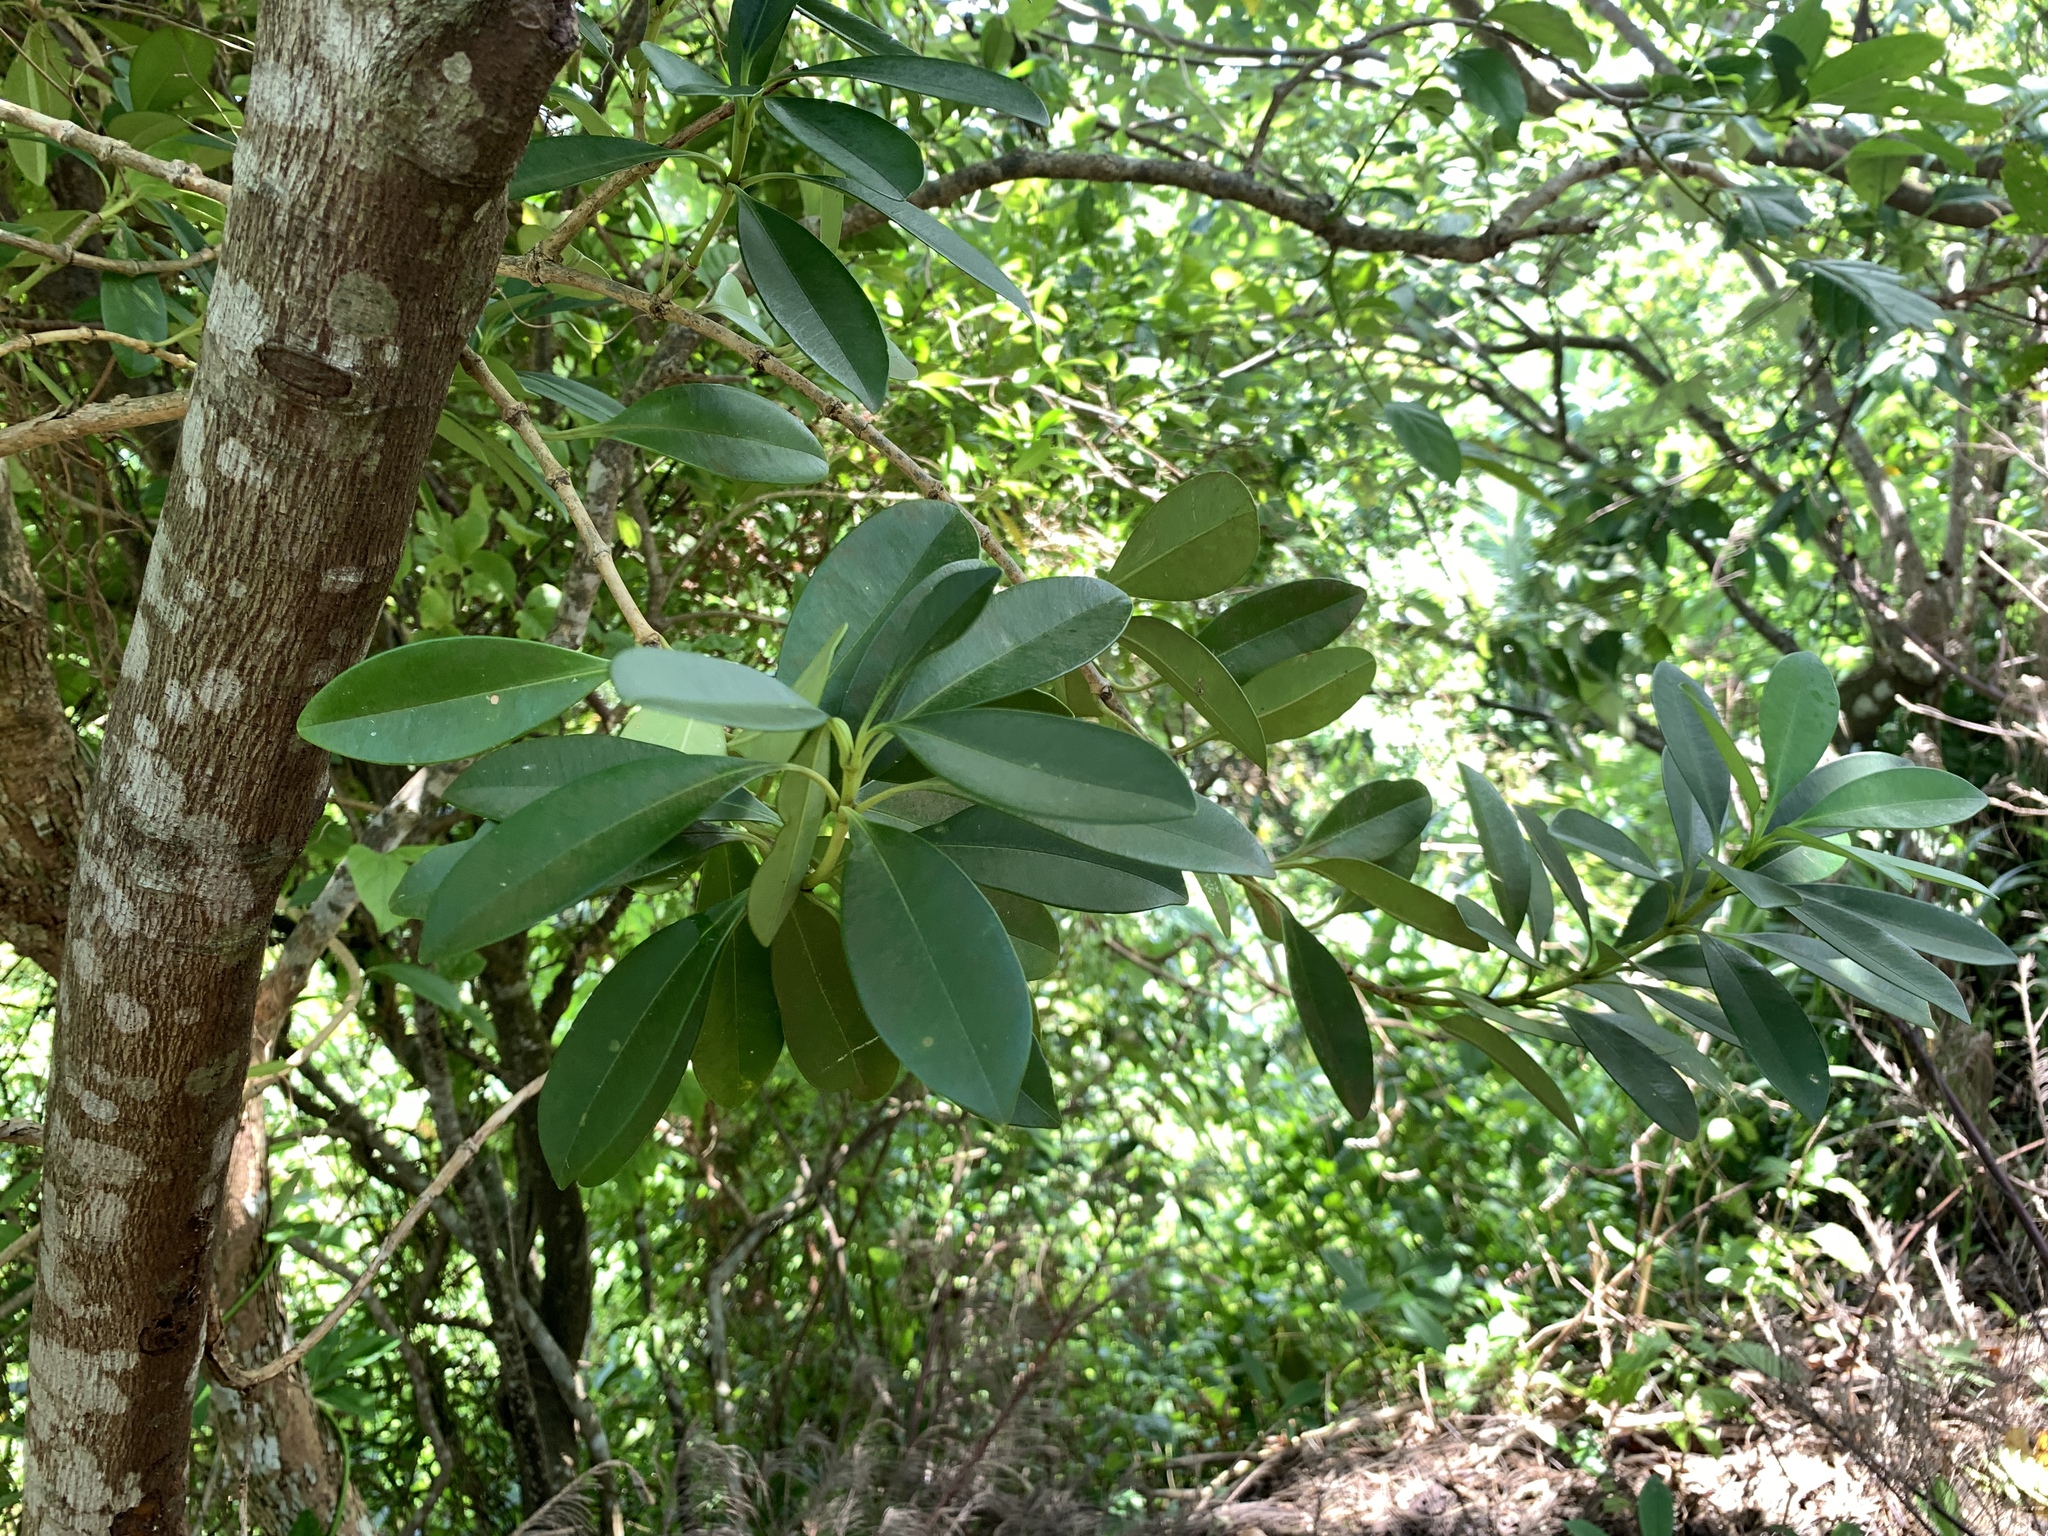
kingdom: Plantae
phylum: Tracheophyta
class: Magnoliopsida
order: Gentianales
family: Apocynaceae
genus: Alyxia
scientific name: Alyxia monticola
